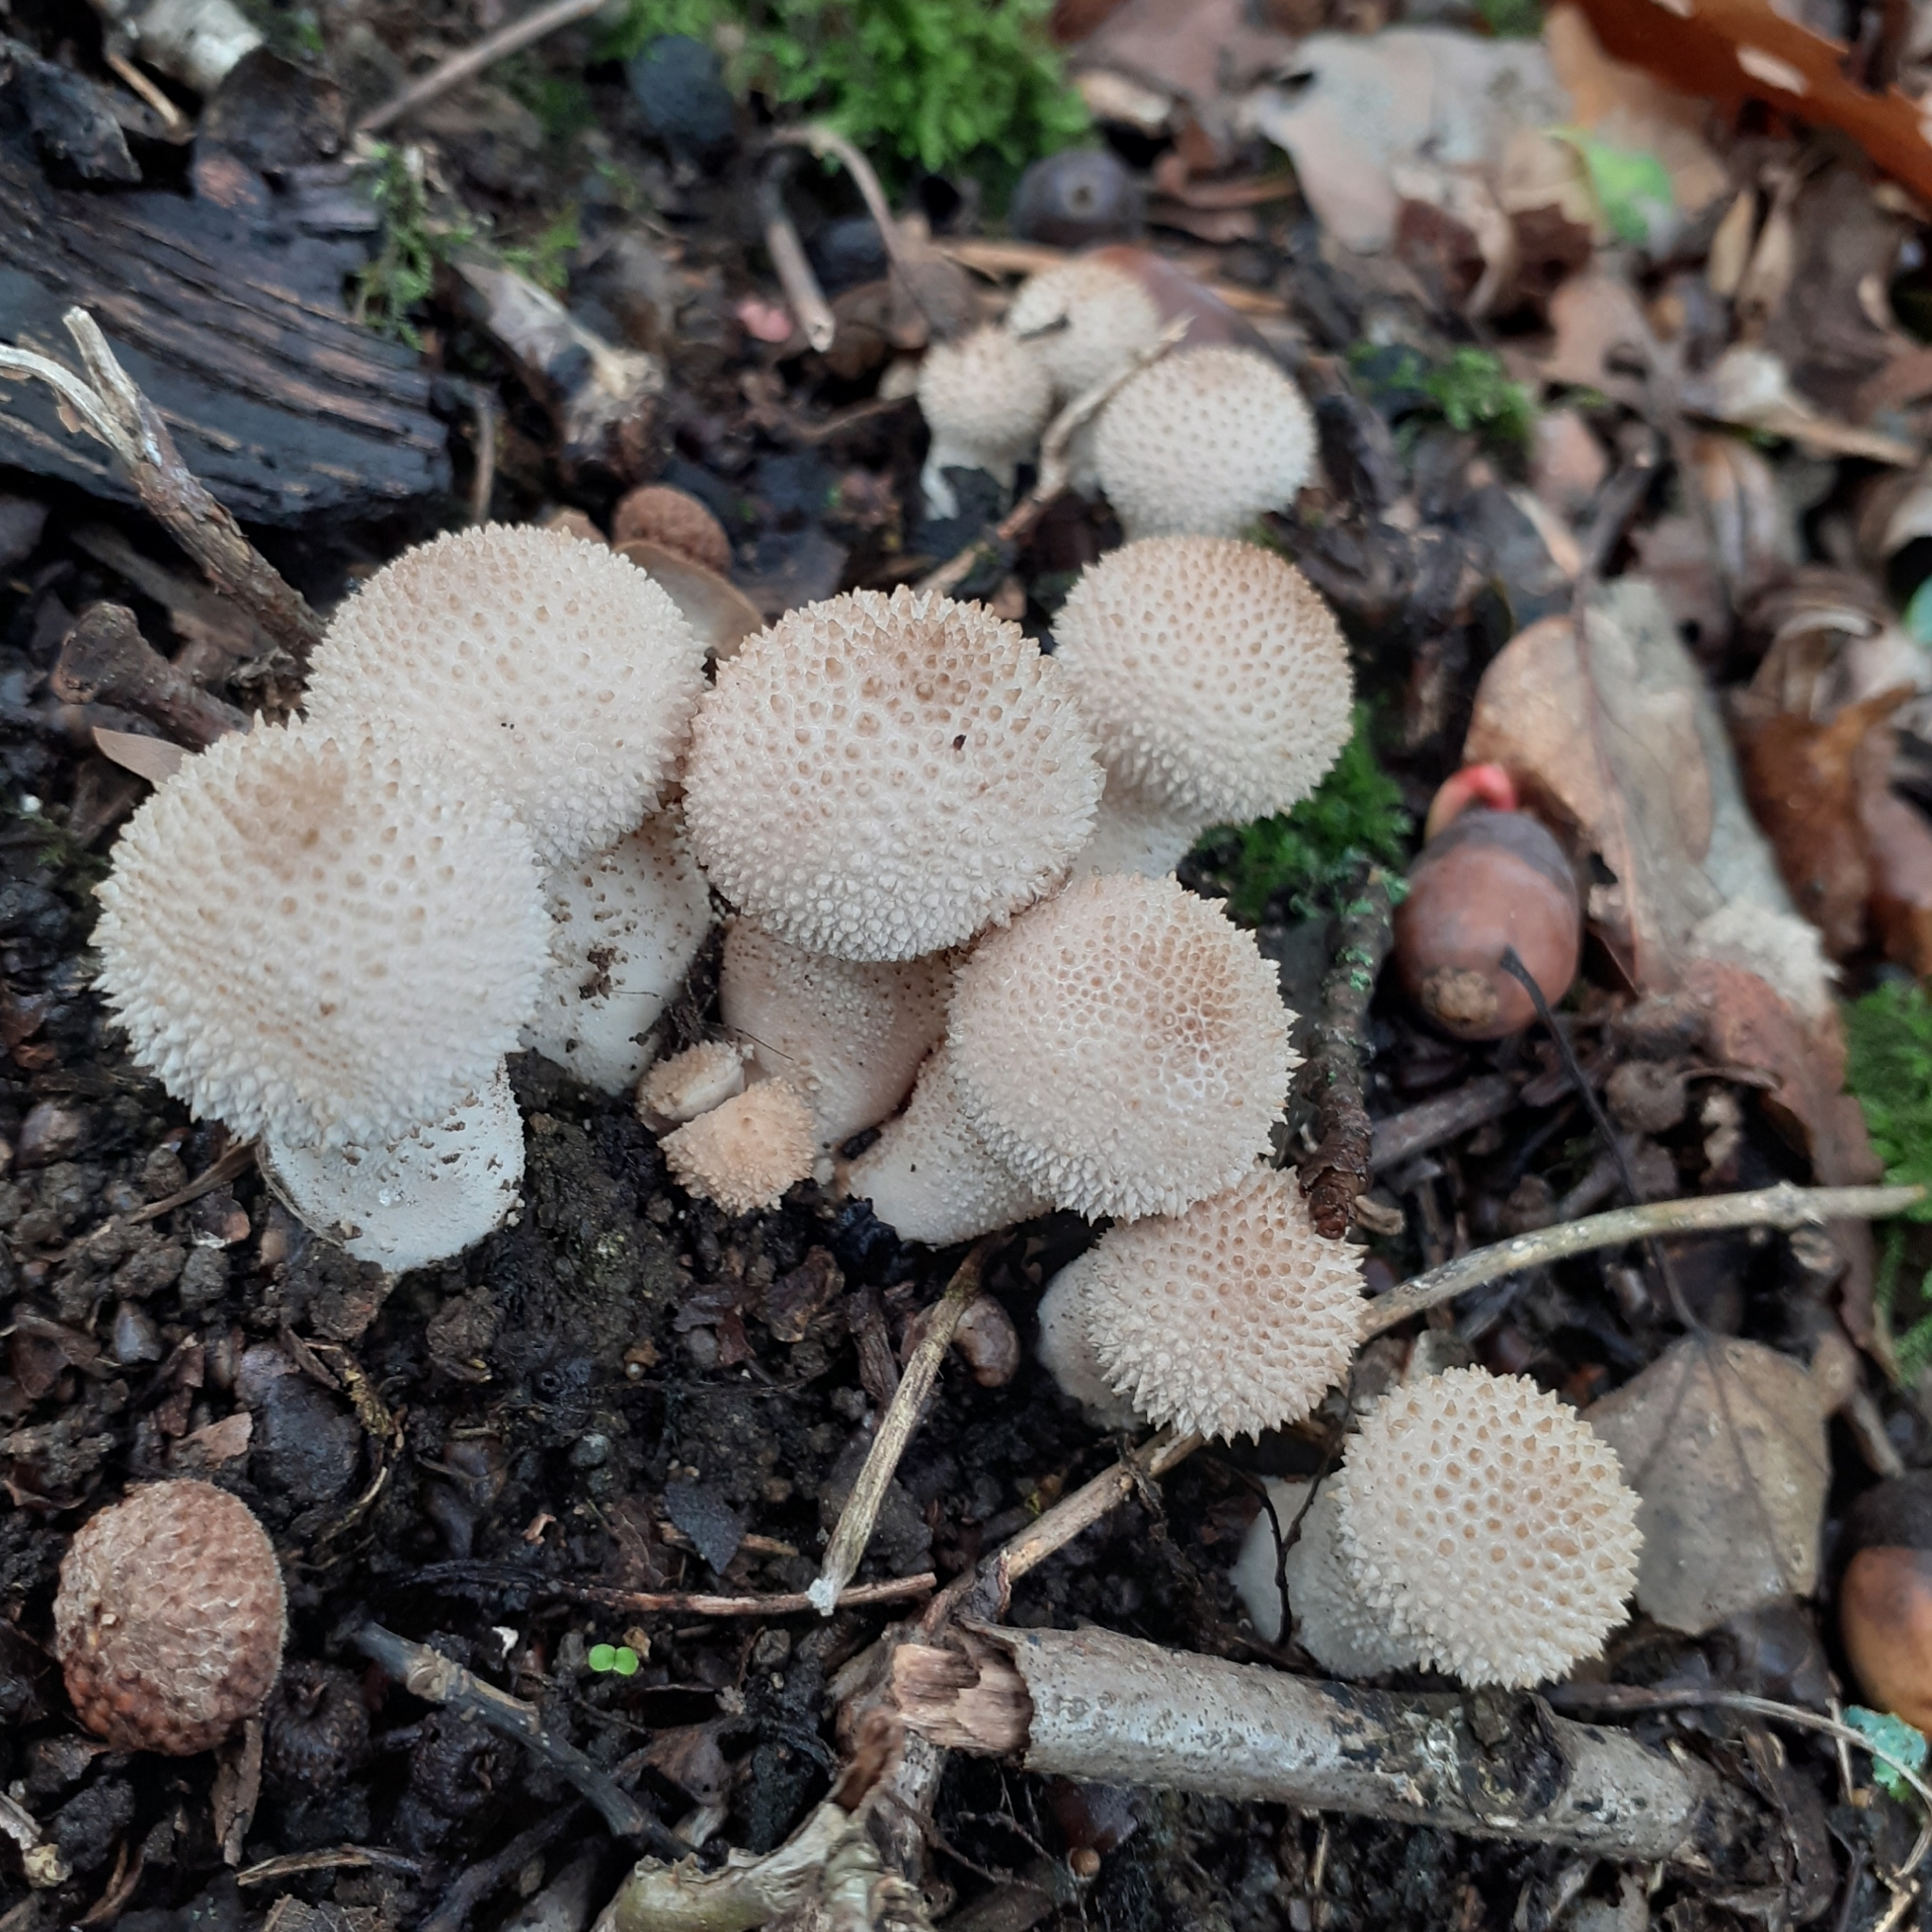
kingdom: Fungi
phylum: Basidiomycota
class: Agaricomycetes
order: Agaricales
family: Lycoperdaceae
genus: Lycoperdon
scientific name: Lycoperdon perlatum
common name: Common puffball
